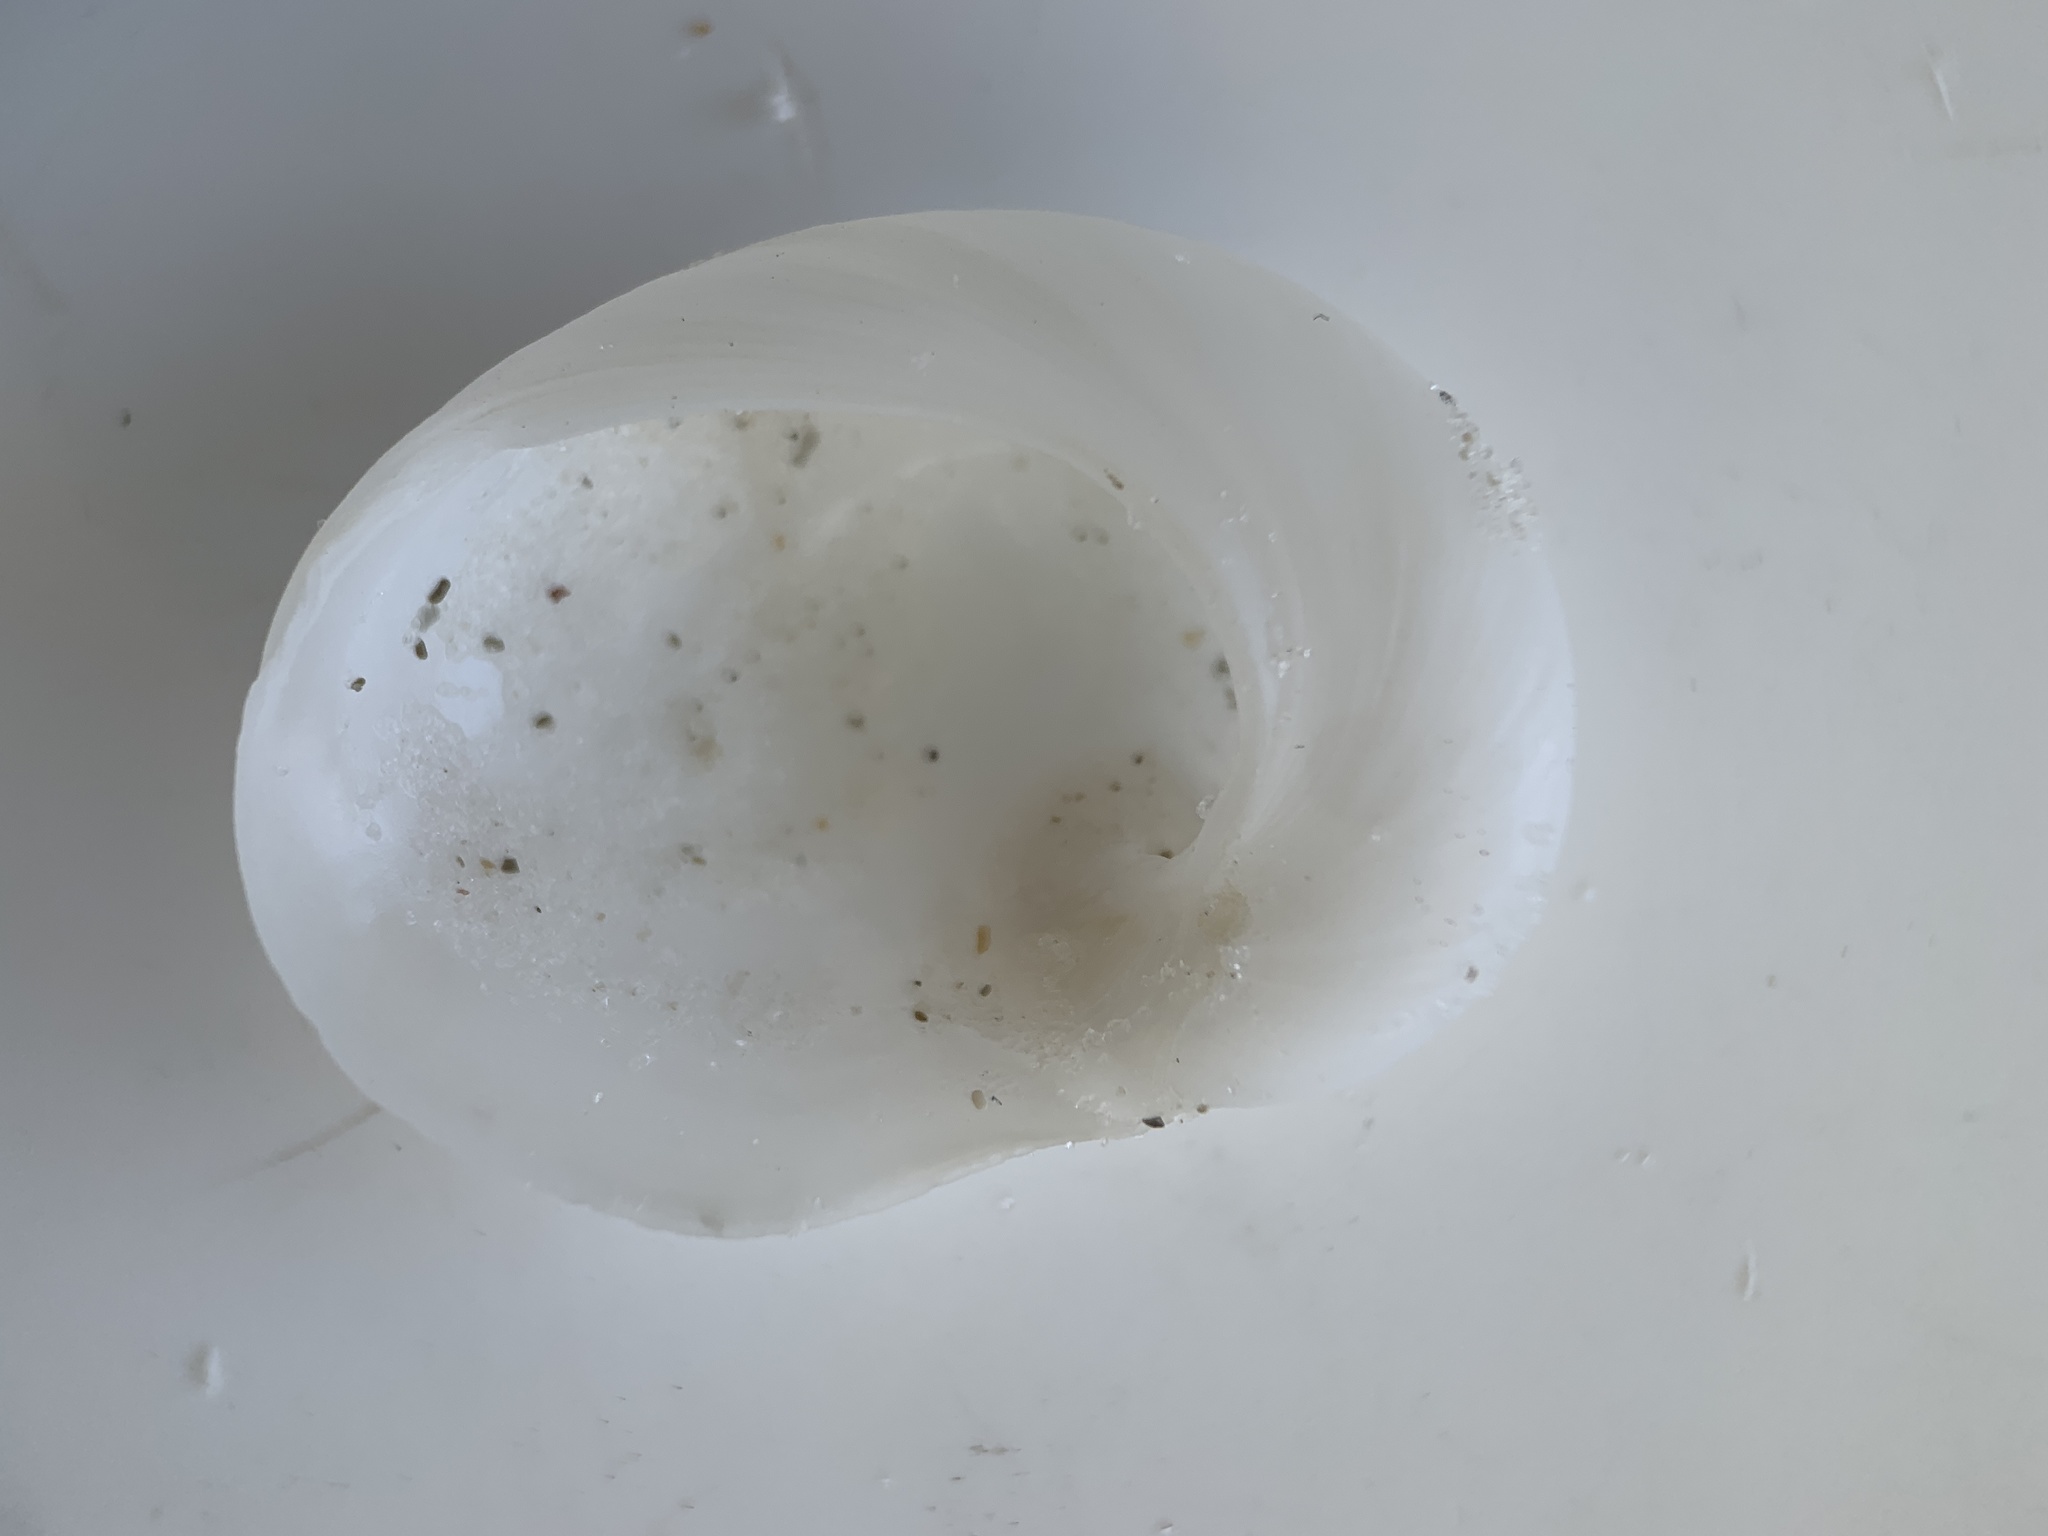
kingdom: Animalia
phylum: Mollusca
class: Gastropoda
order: Littorinimorpha
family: Naticidae
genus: Sinum
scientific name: Sinum perspectivum
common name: White baby ear
